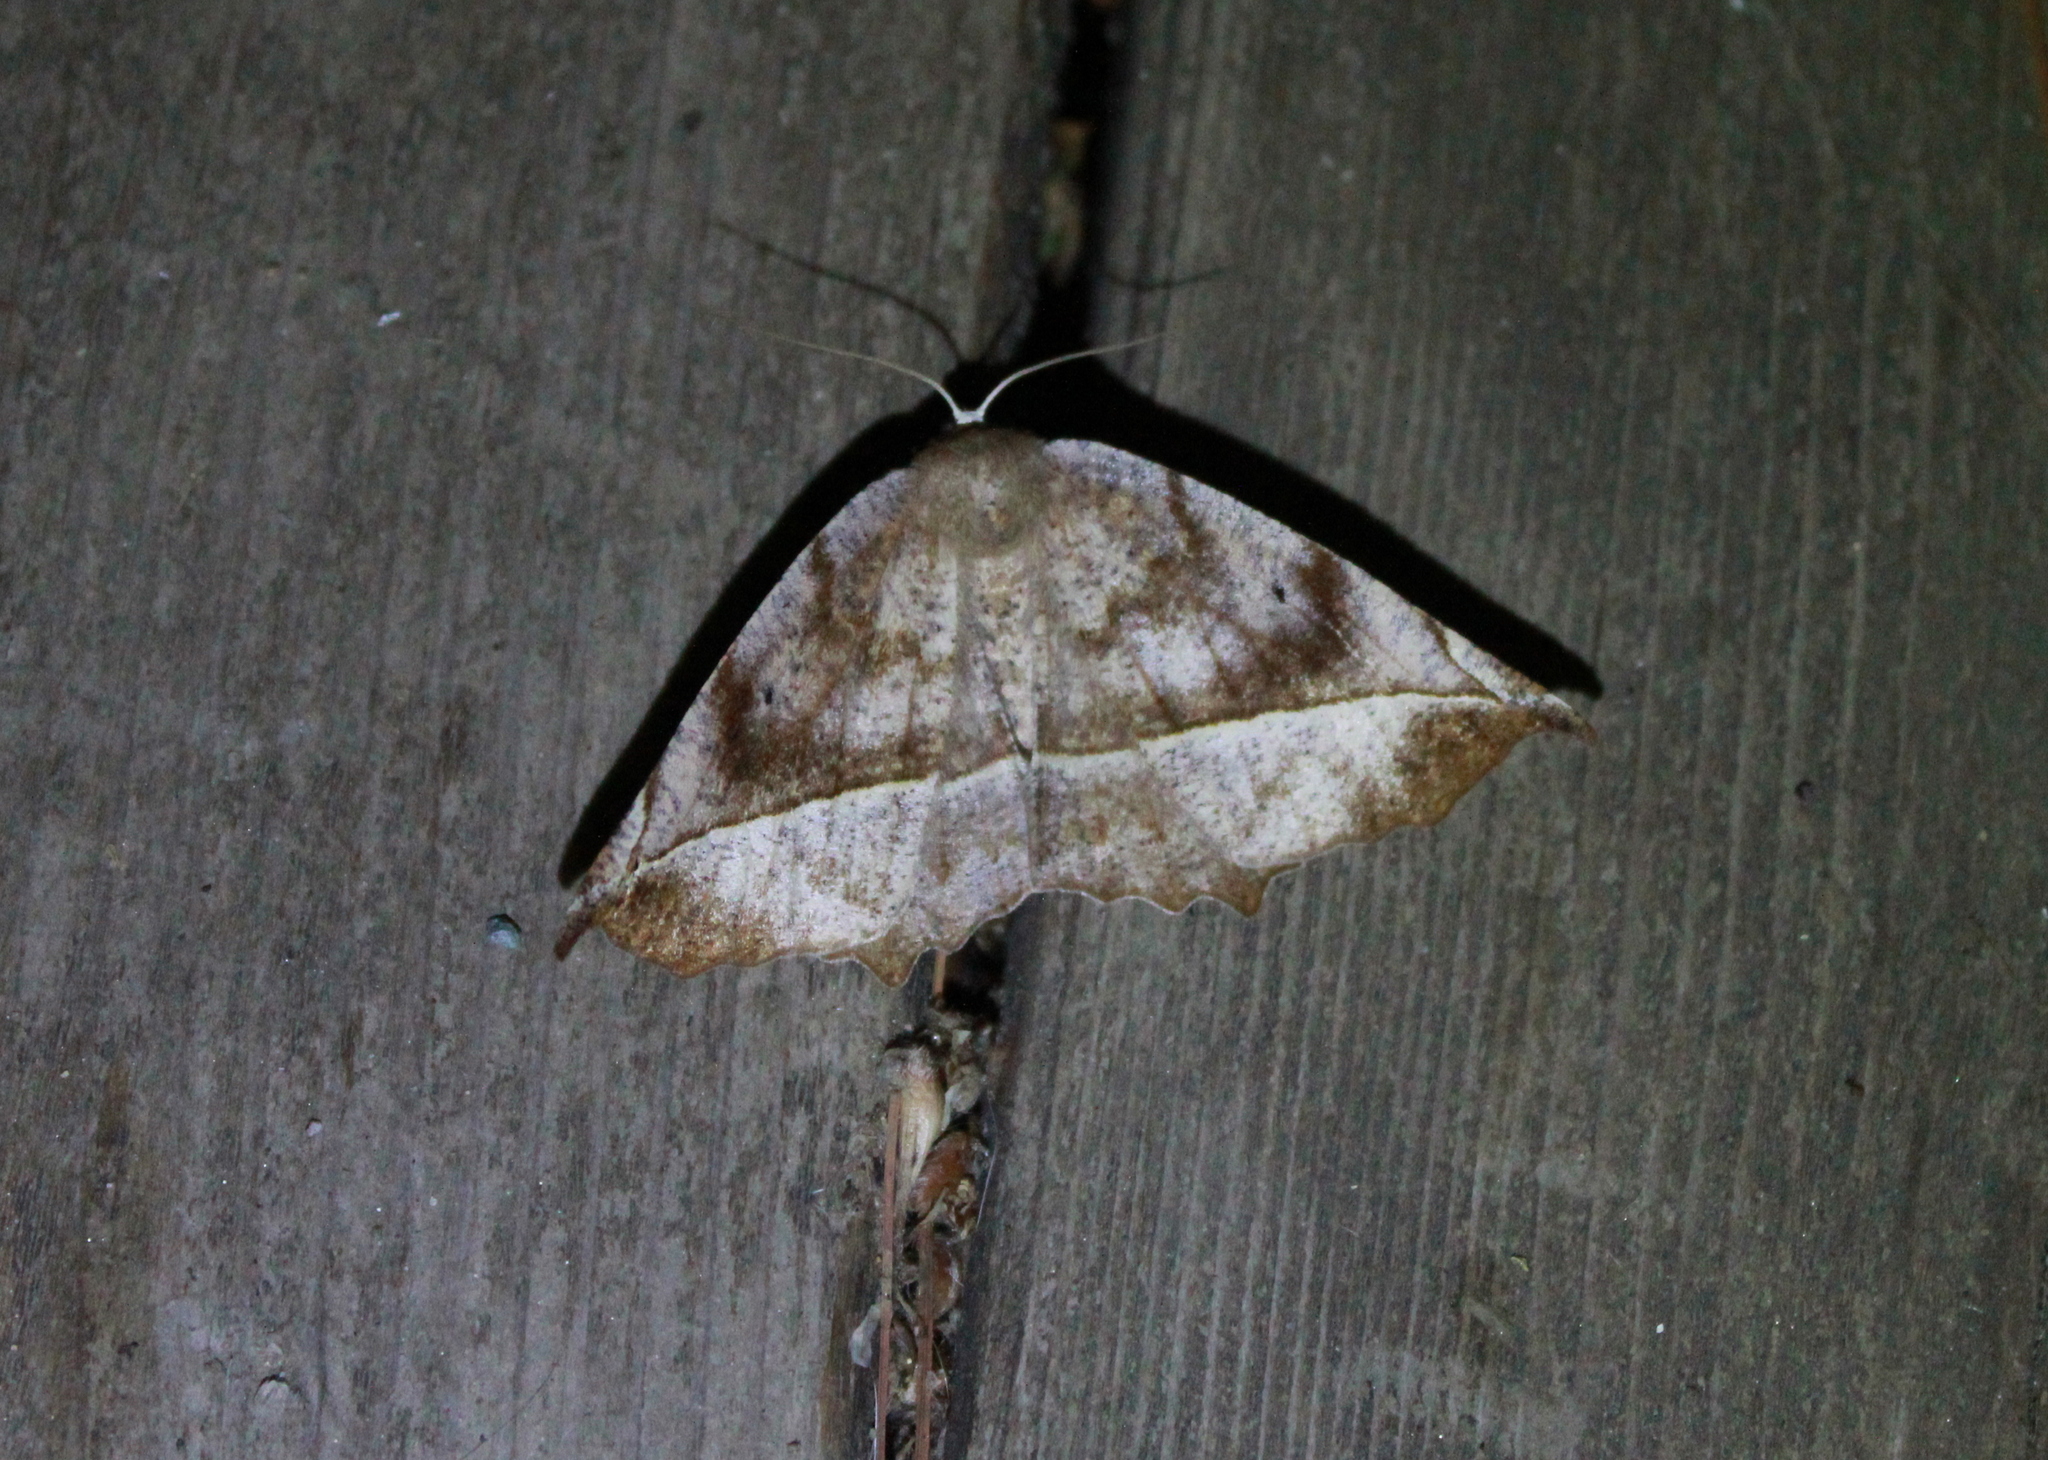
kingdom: Animalia
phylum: Arthropoda
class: Insecta
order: Lepidoptera
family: Geometridae
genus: Eutrapela
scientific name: Eutrapela clemataria
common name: Curved-toothed geometer
